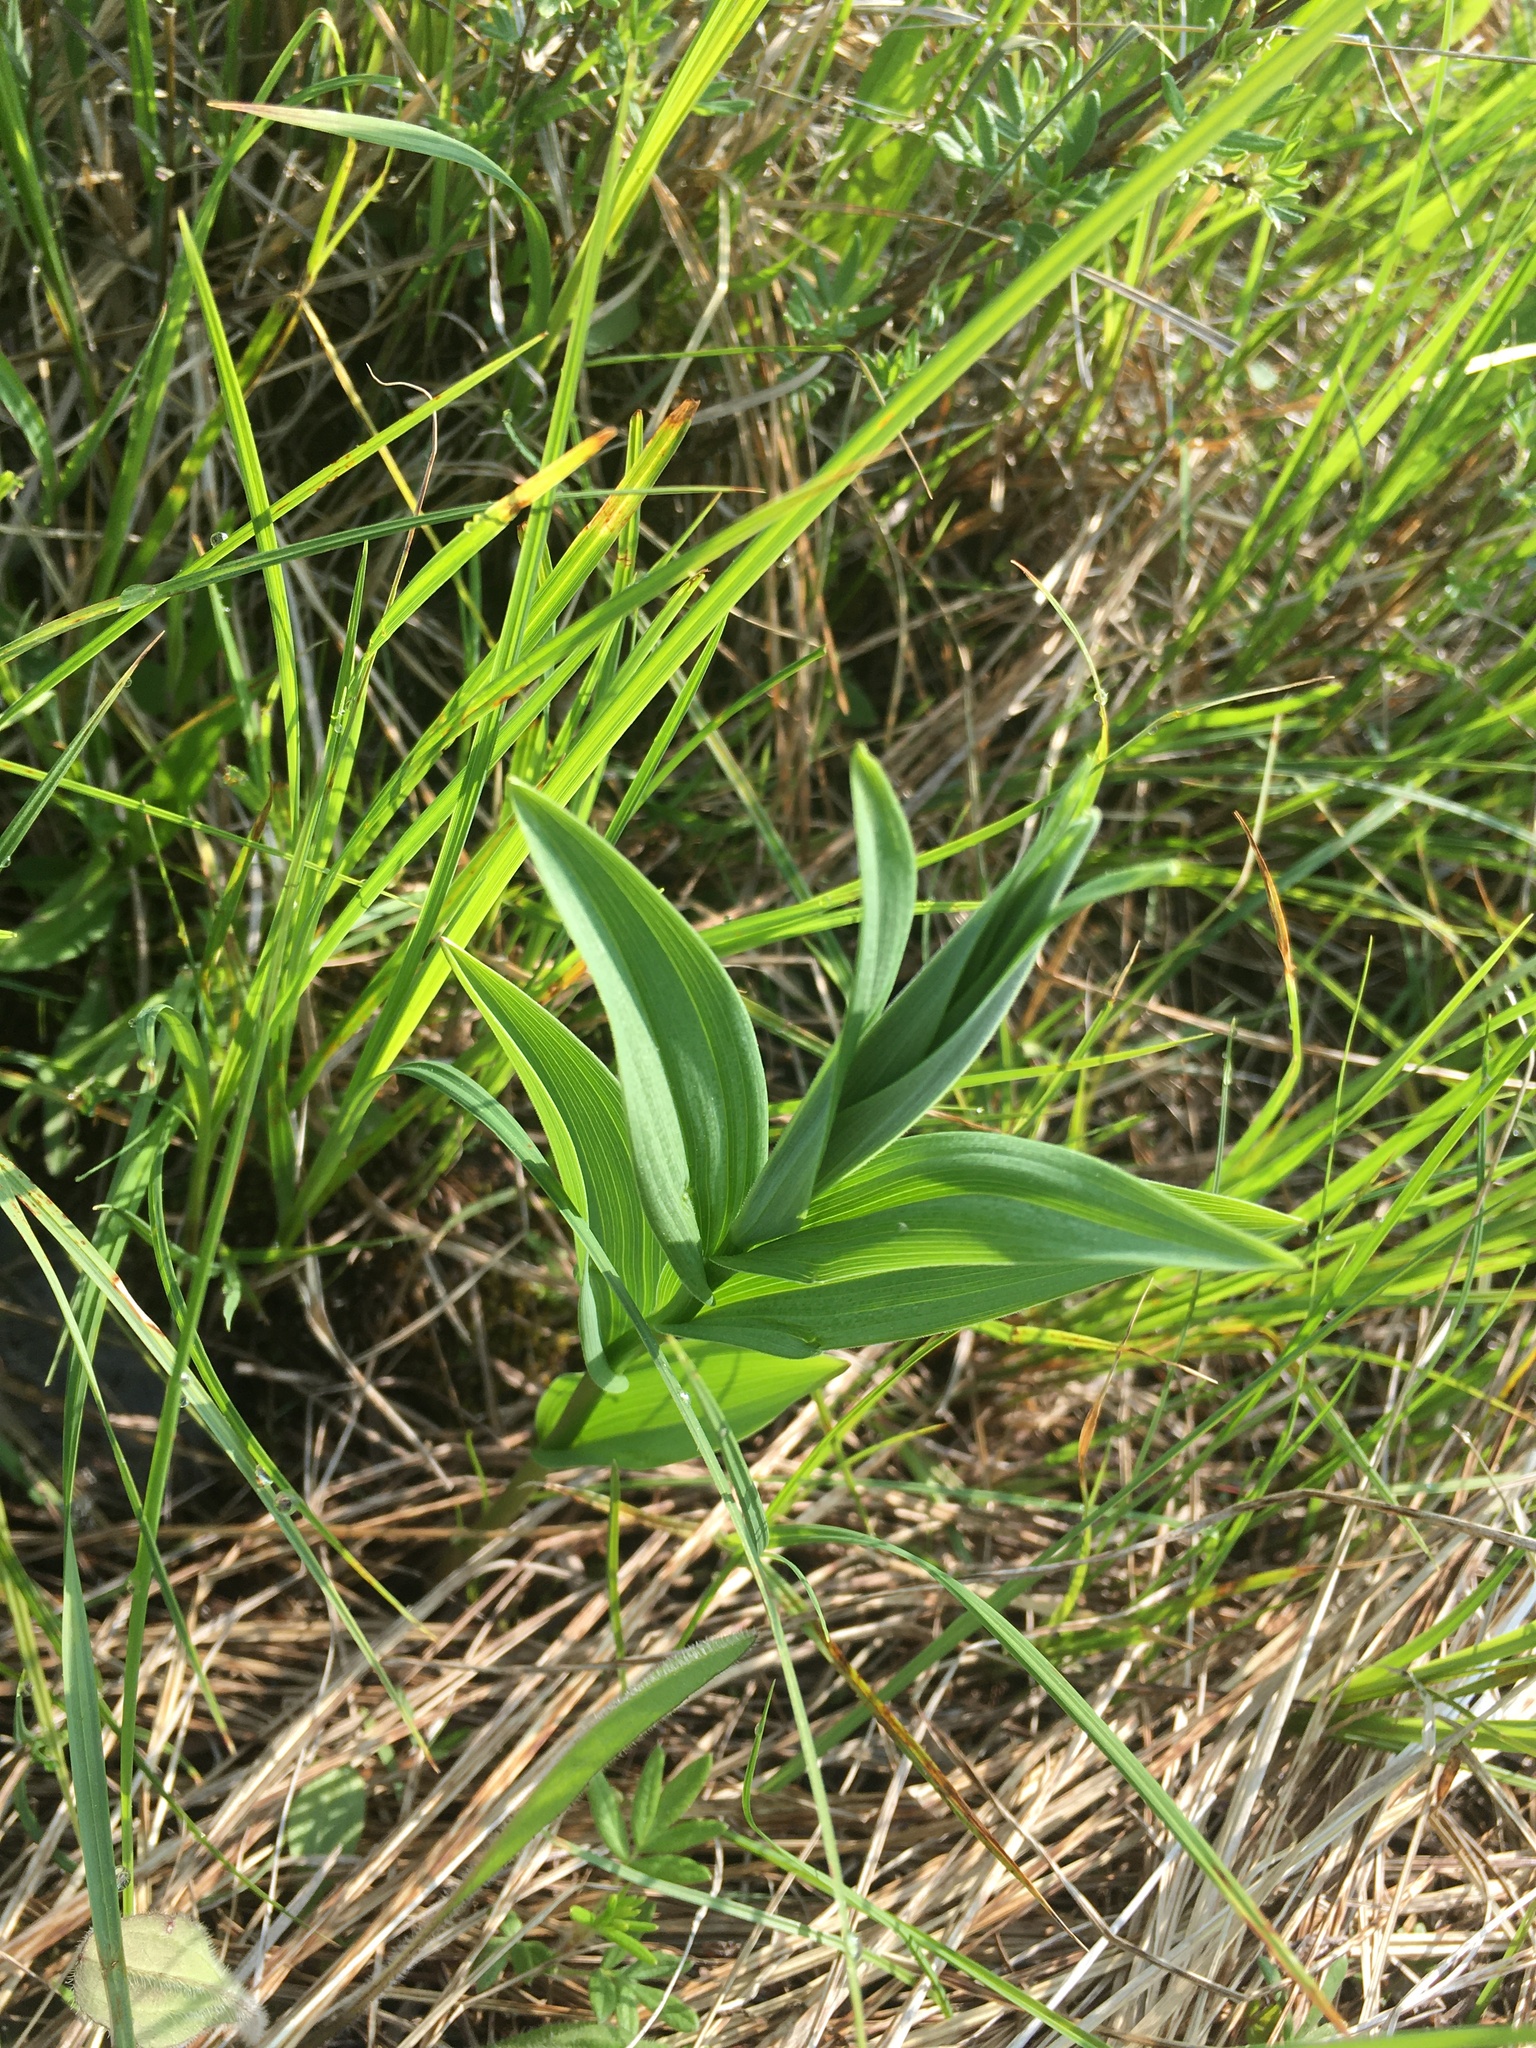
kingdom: Plantae
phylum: Tracheophyta
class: Liliopsida
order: Asparagales
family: Asparagaceae
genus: Maianthemum
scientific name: Maianthemum stellatum
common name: Little false solomon's seal
